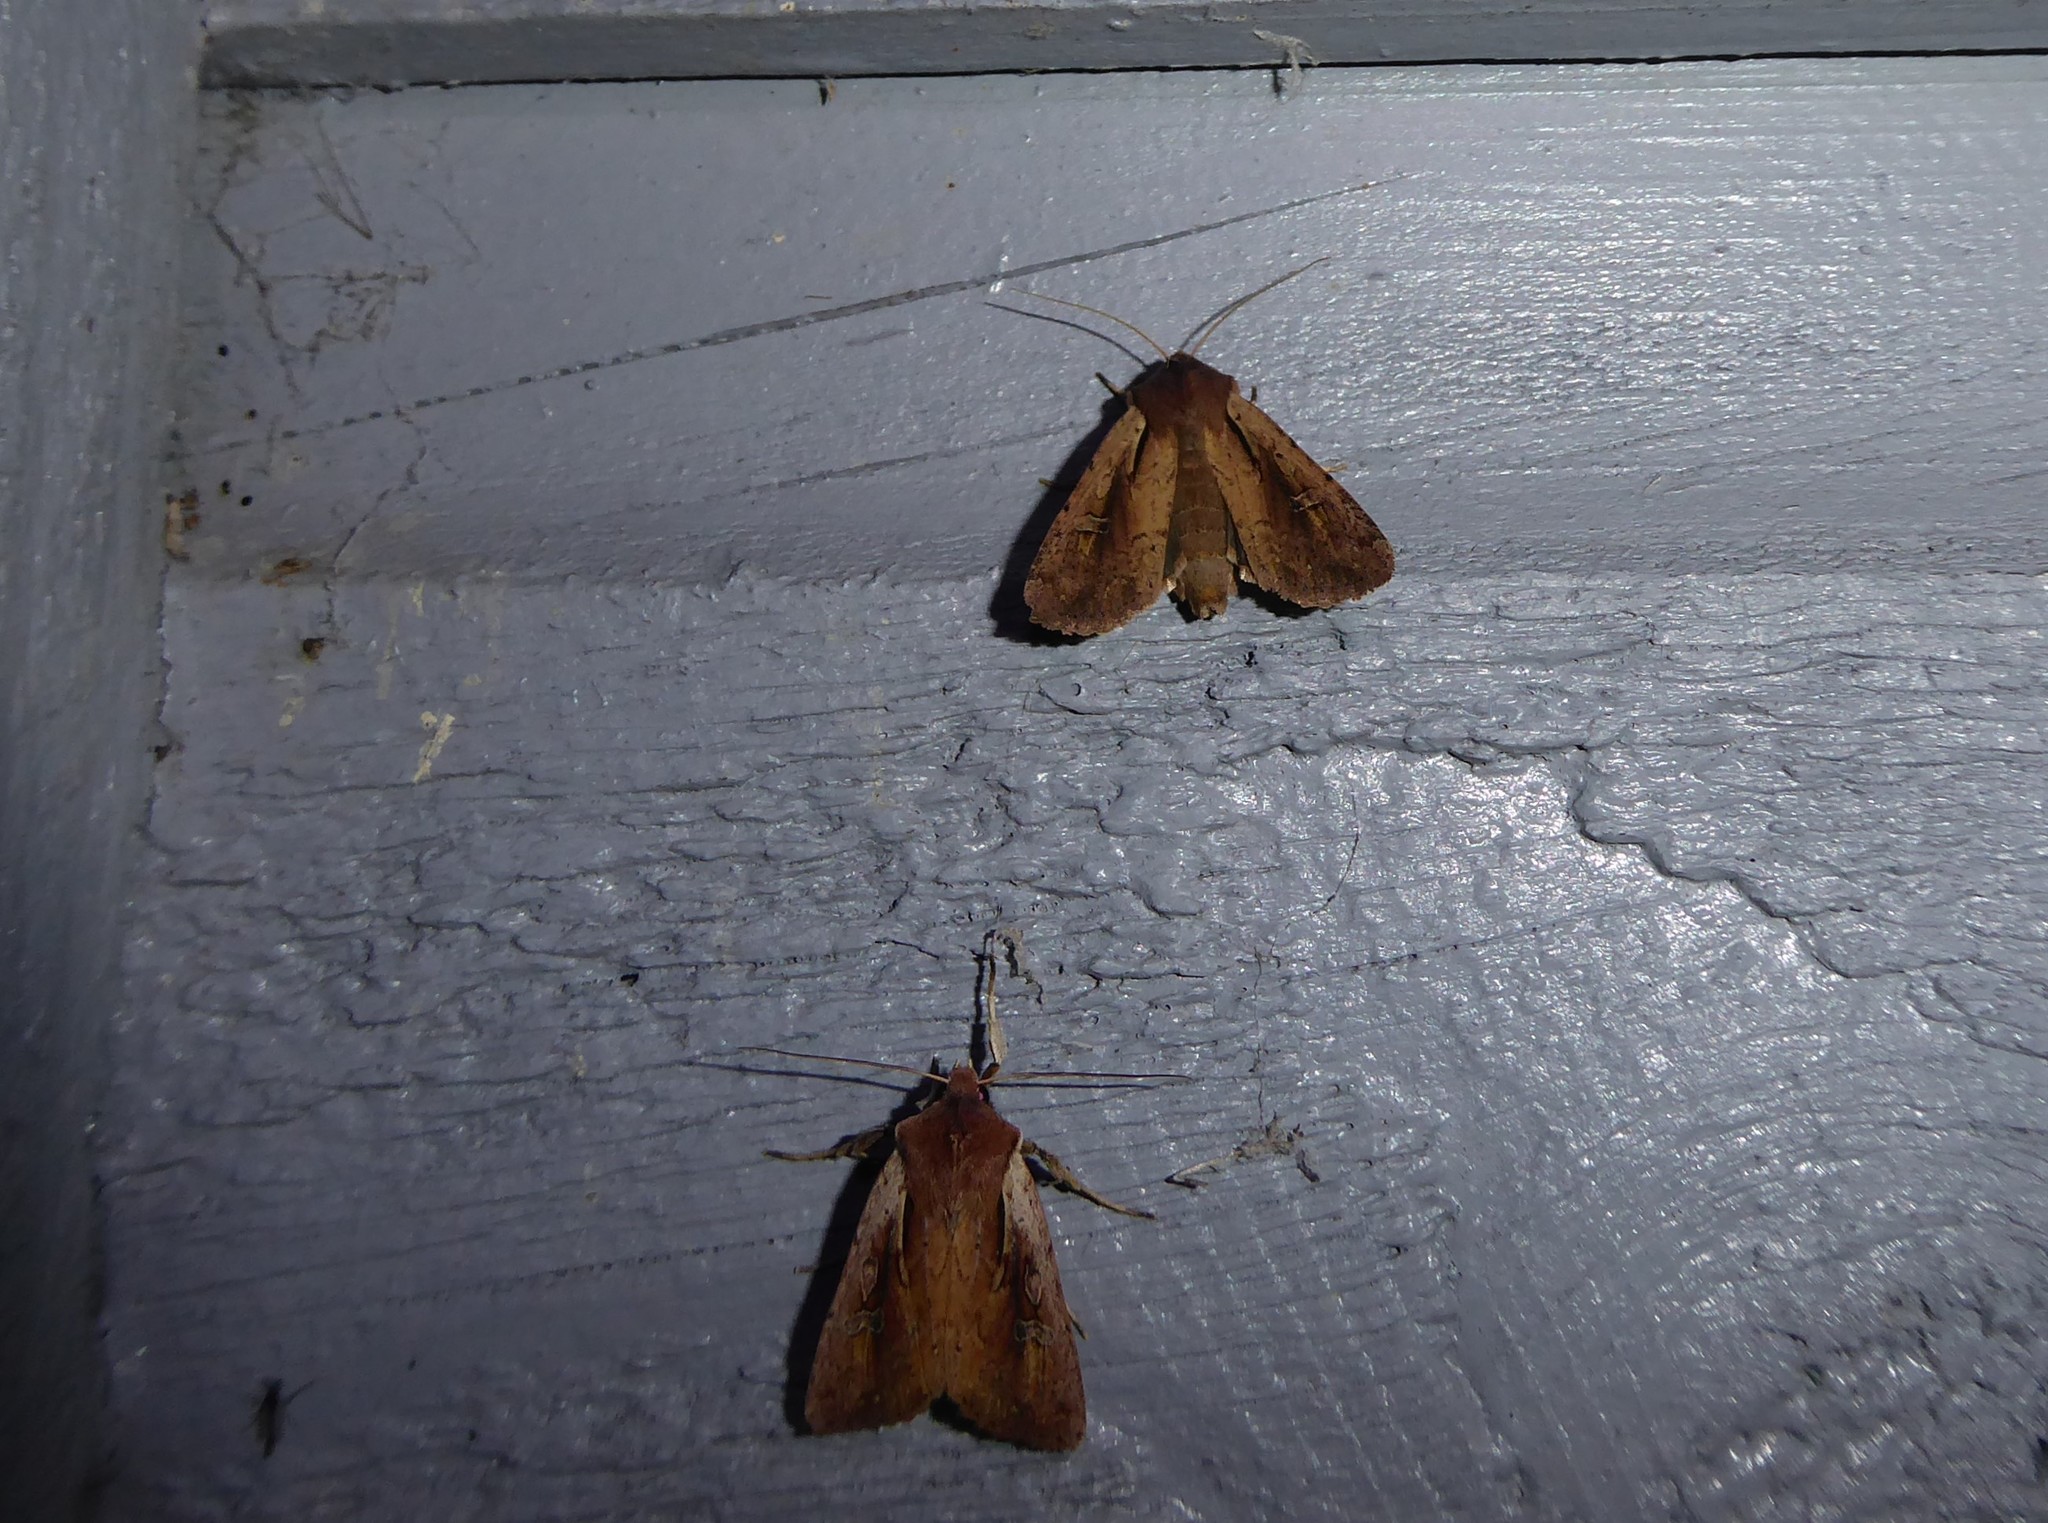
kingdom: Animalia
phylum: Arthropoda
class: Insecta
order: Lepidoptera
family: Noctuidae
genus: Ichneutica
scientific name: Ichneutica atristriga
